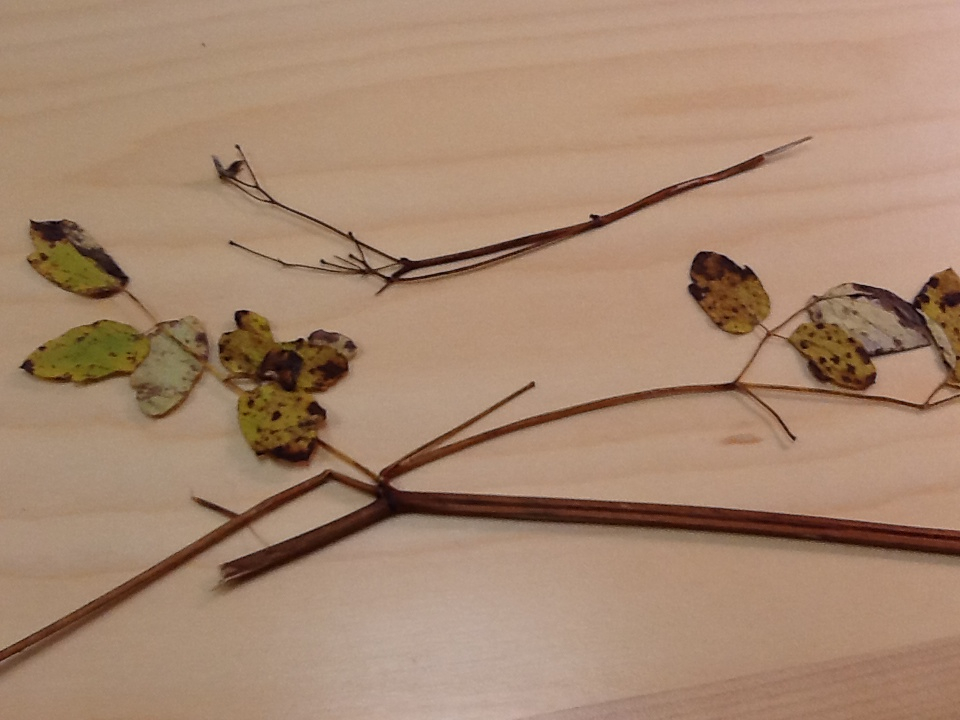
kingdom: Plantae
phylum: Tracheophyta
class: Magnoliopsida
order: Ranunculales
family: Ranunculaceae
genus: Thalictrum
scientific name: Thalictrum pubescens
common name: King-of-the-meadow
